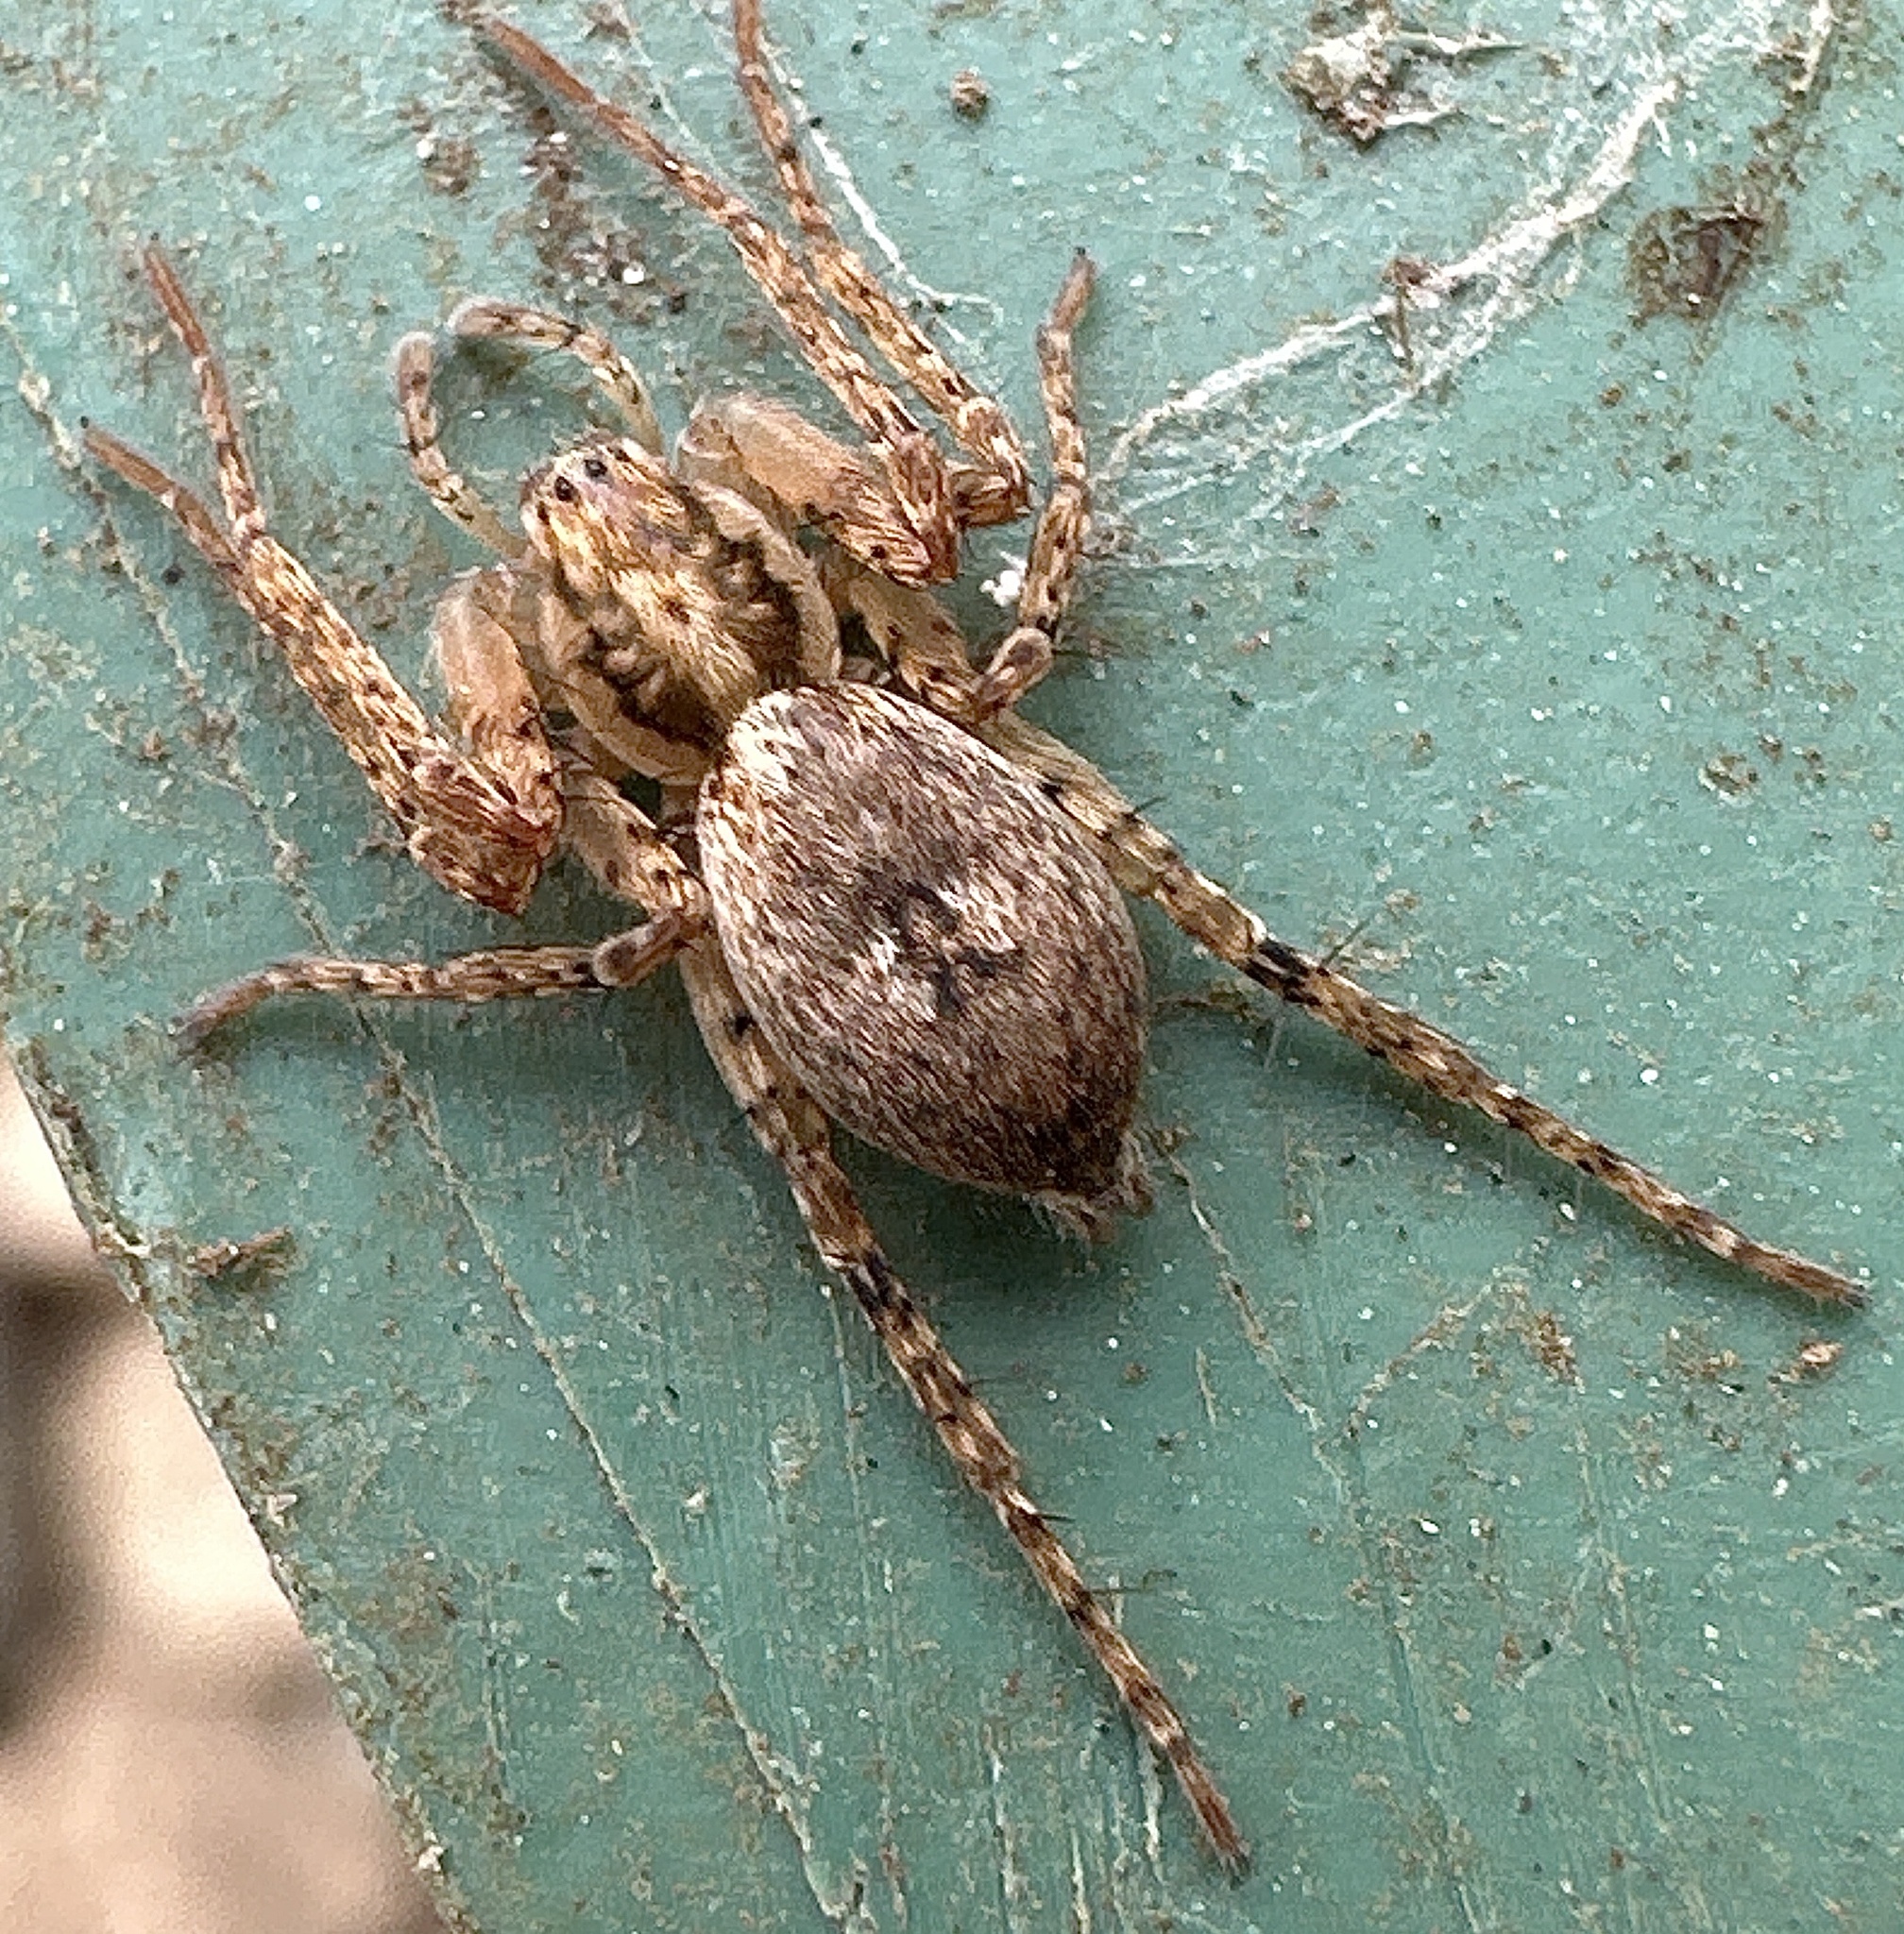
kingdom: Animalia
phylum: Arthropoda
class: Arachnida
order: Araneae
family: Anyphaenidae
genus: Anyphaena
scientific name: Anyphaena accentuata
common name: Buzzing spider
